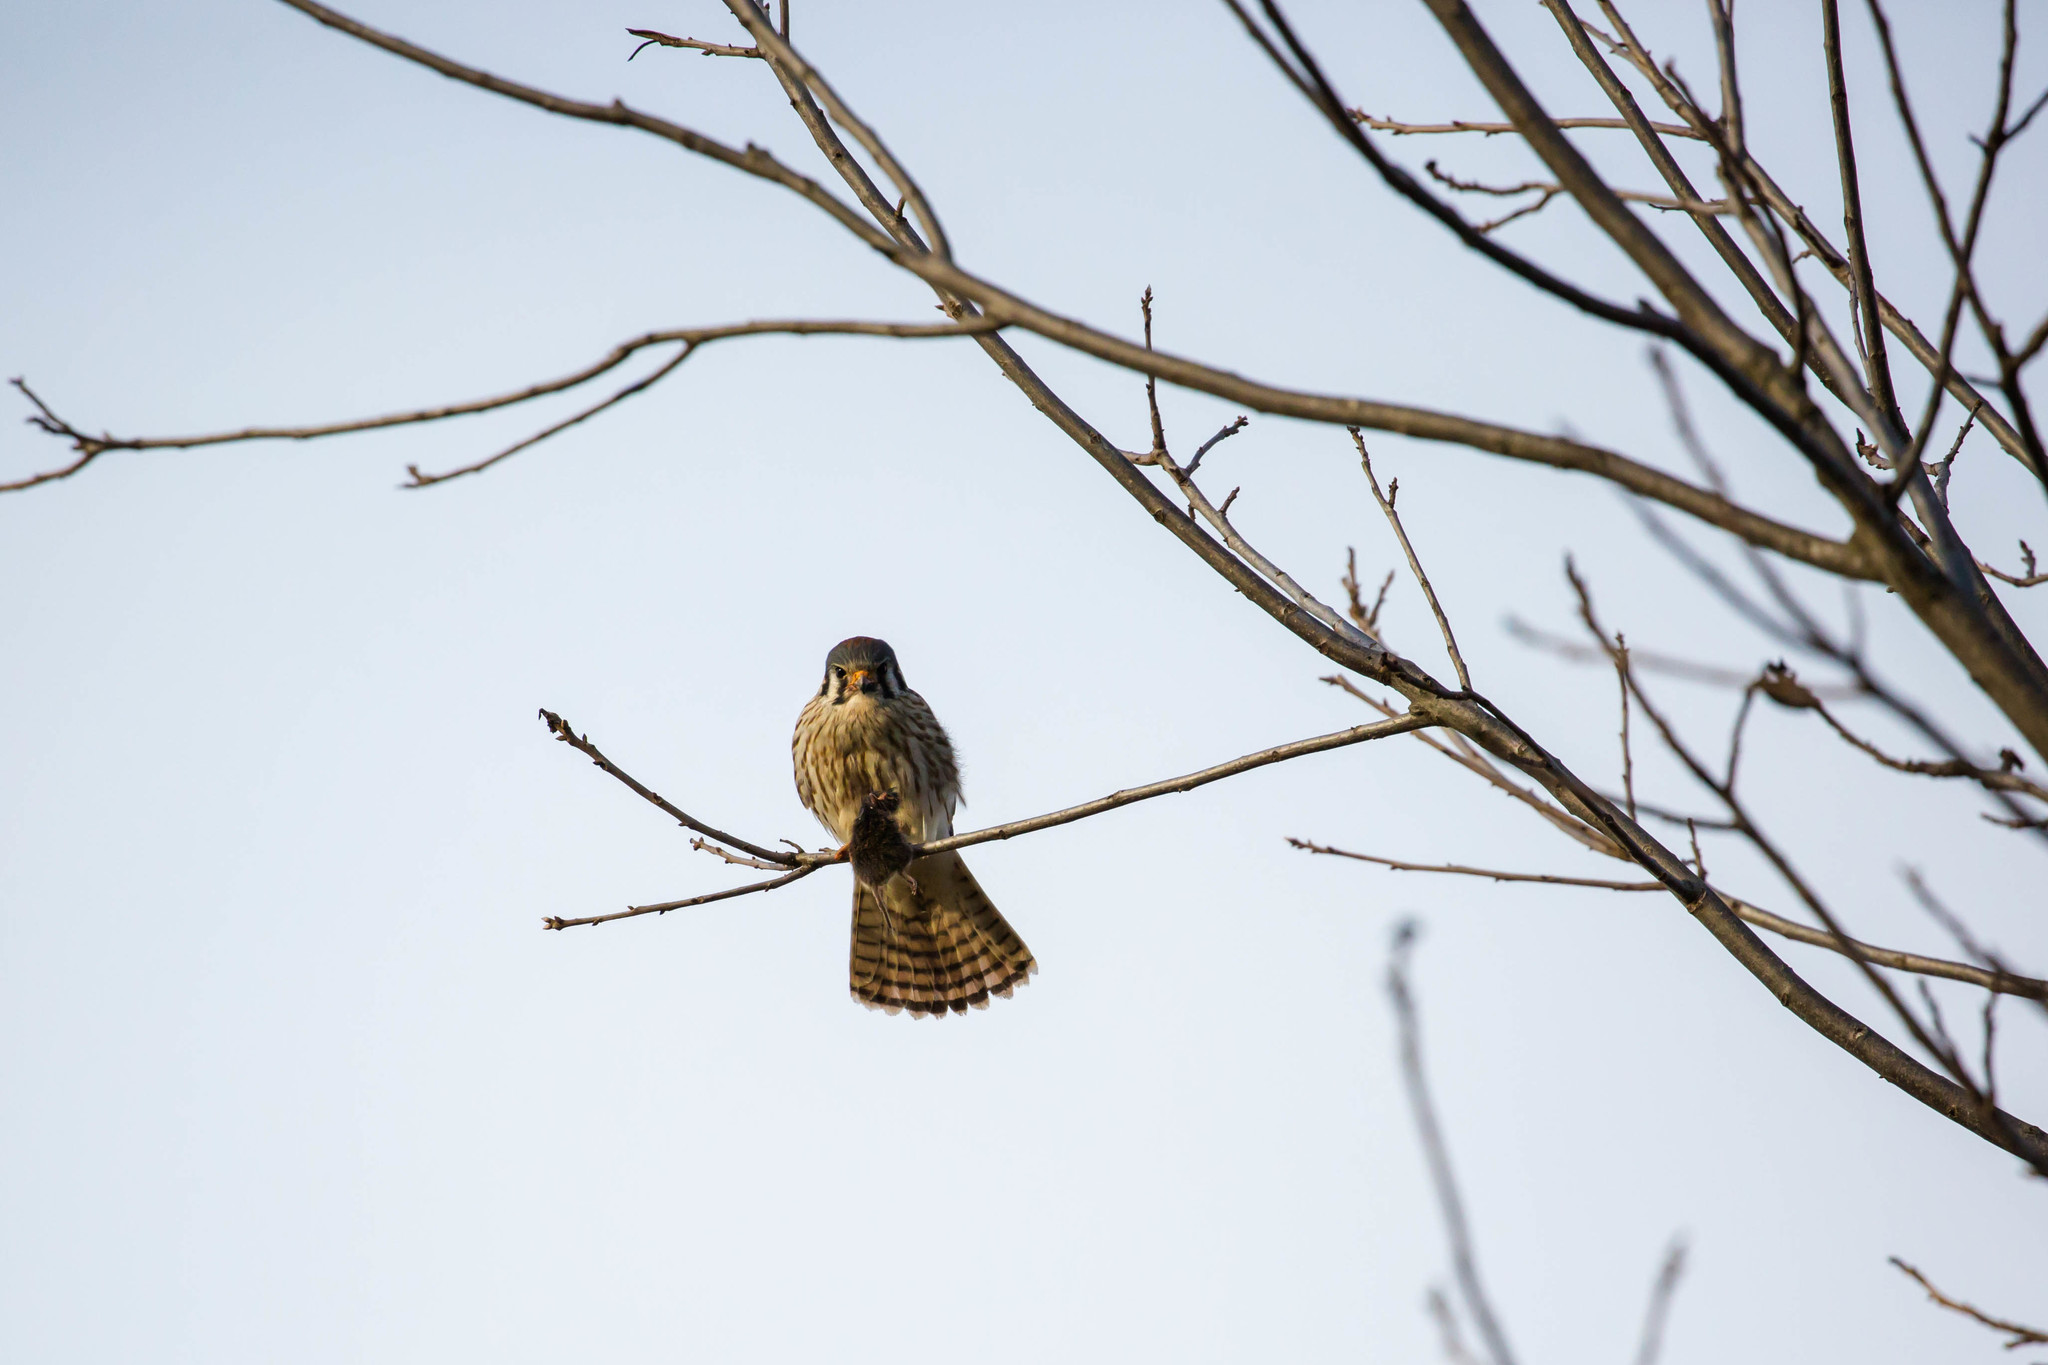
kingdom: Animalia
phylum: Chordata
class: Aves
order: Falconiformes
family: Falconidae
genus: Falco
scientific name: Falco sparverius
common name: American kestrel
